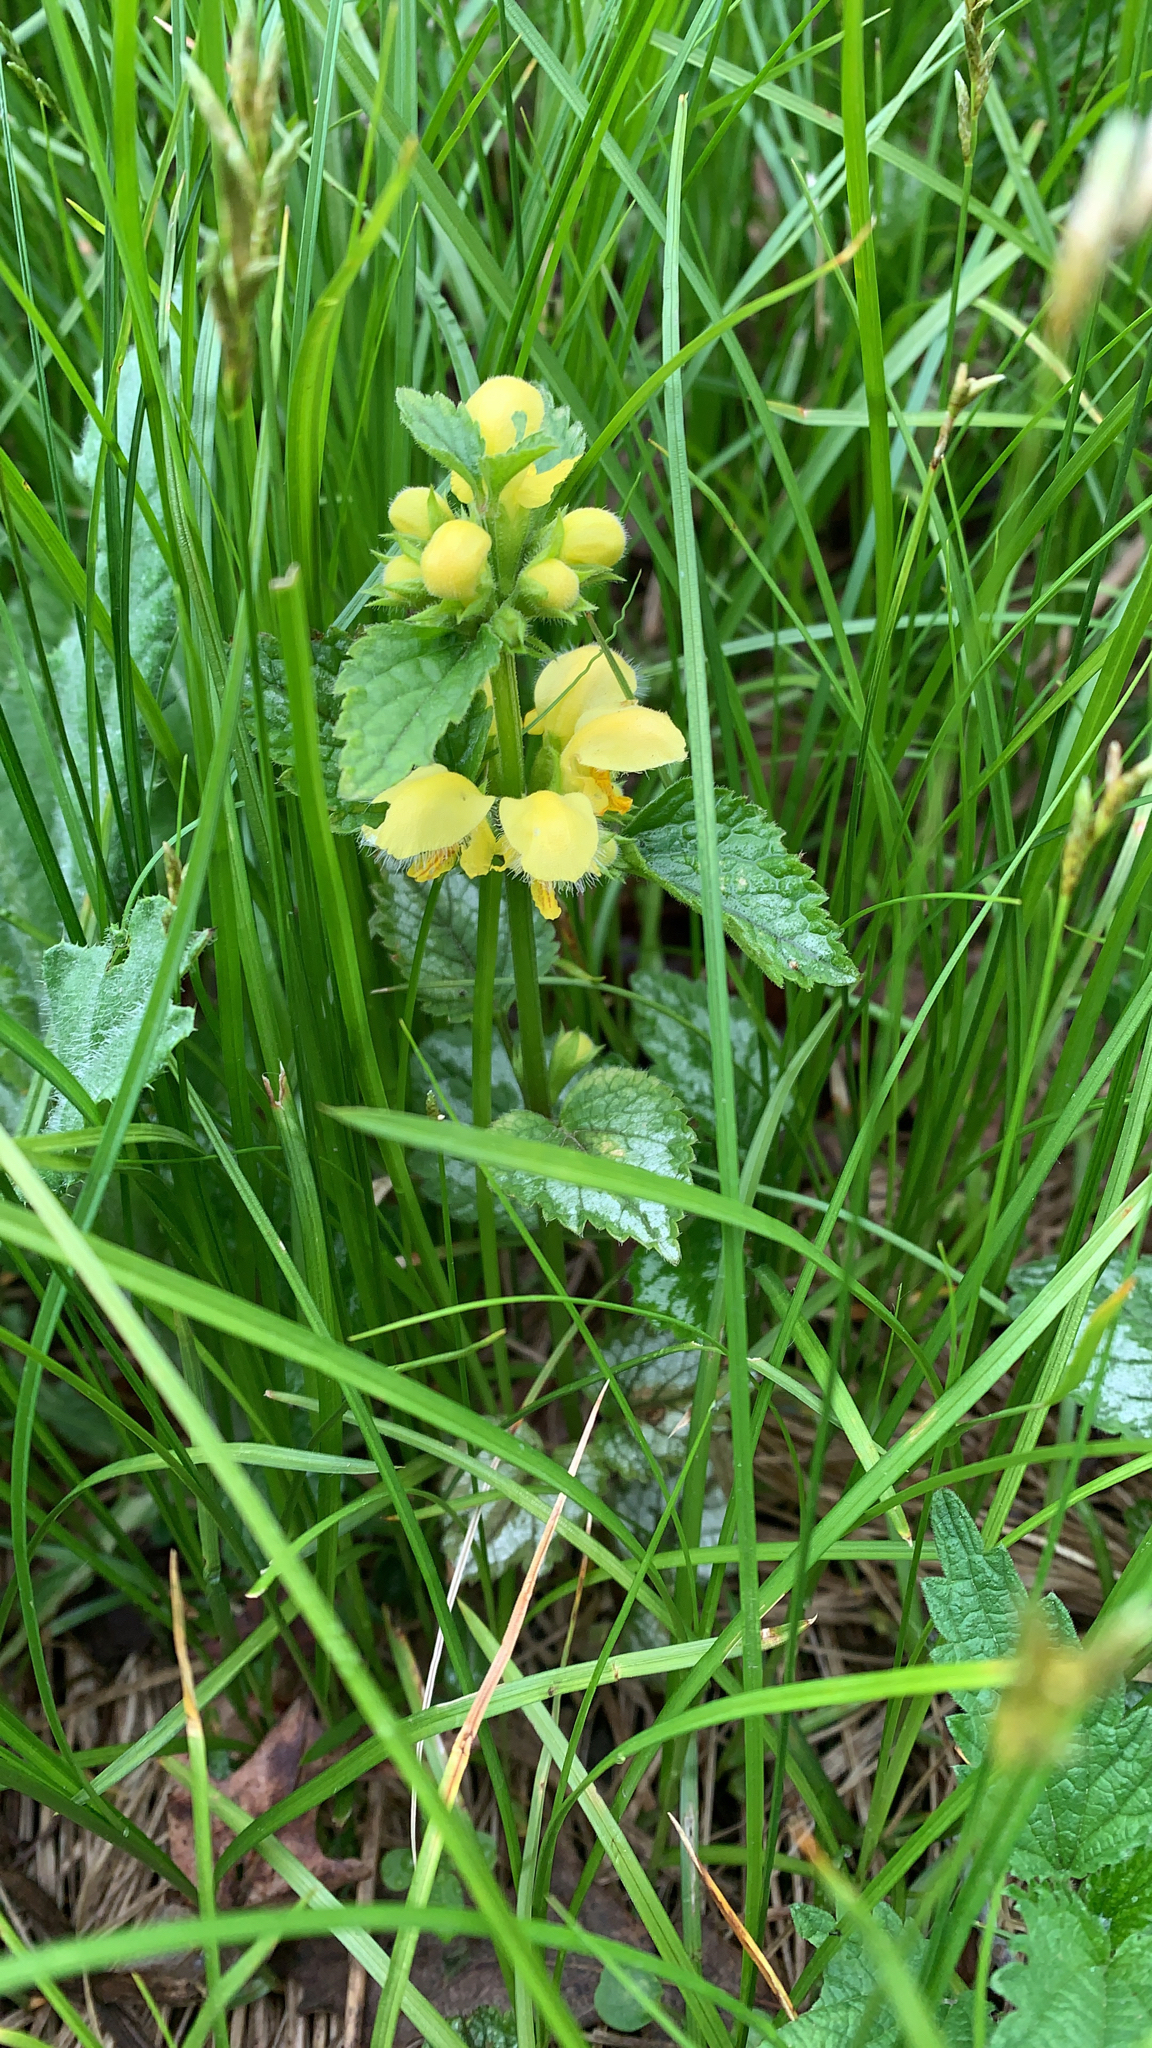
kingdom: Plantae
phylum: Tracheophyta
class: Magnoliopsida
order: Lamiales
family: Lamiaceae
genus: Lamium
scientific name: Lamium galeobdolon
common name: Yellow archangel
